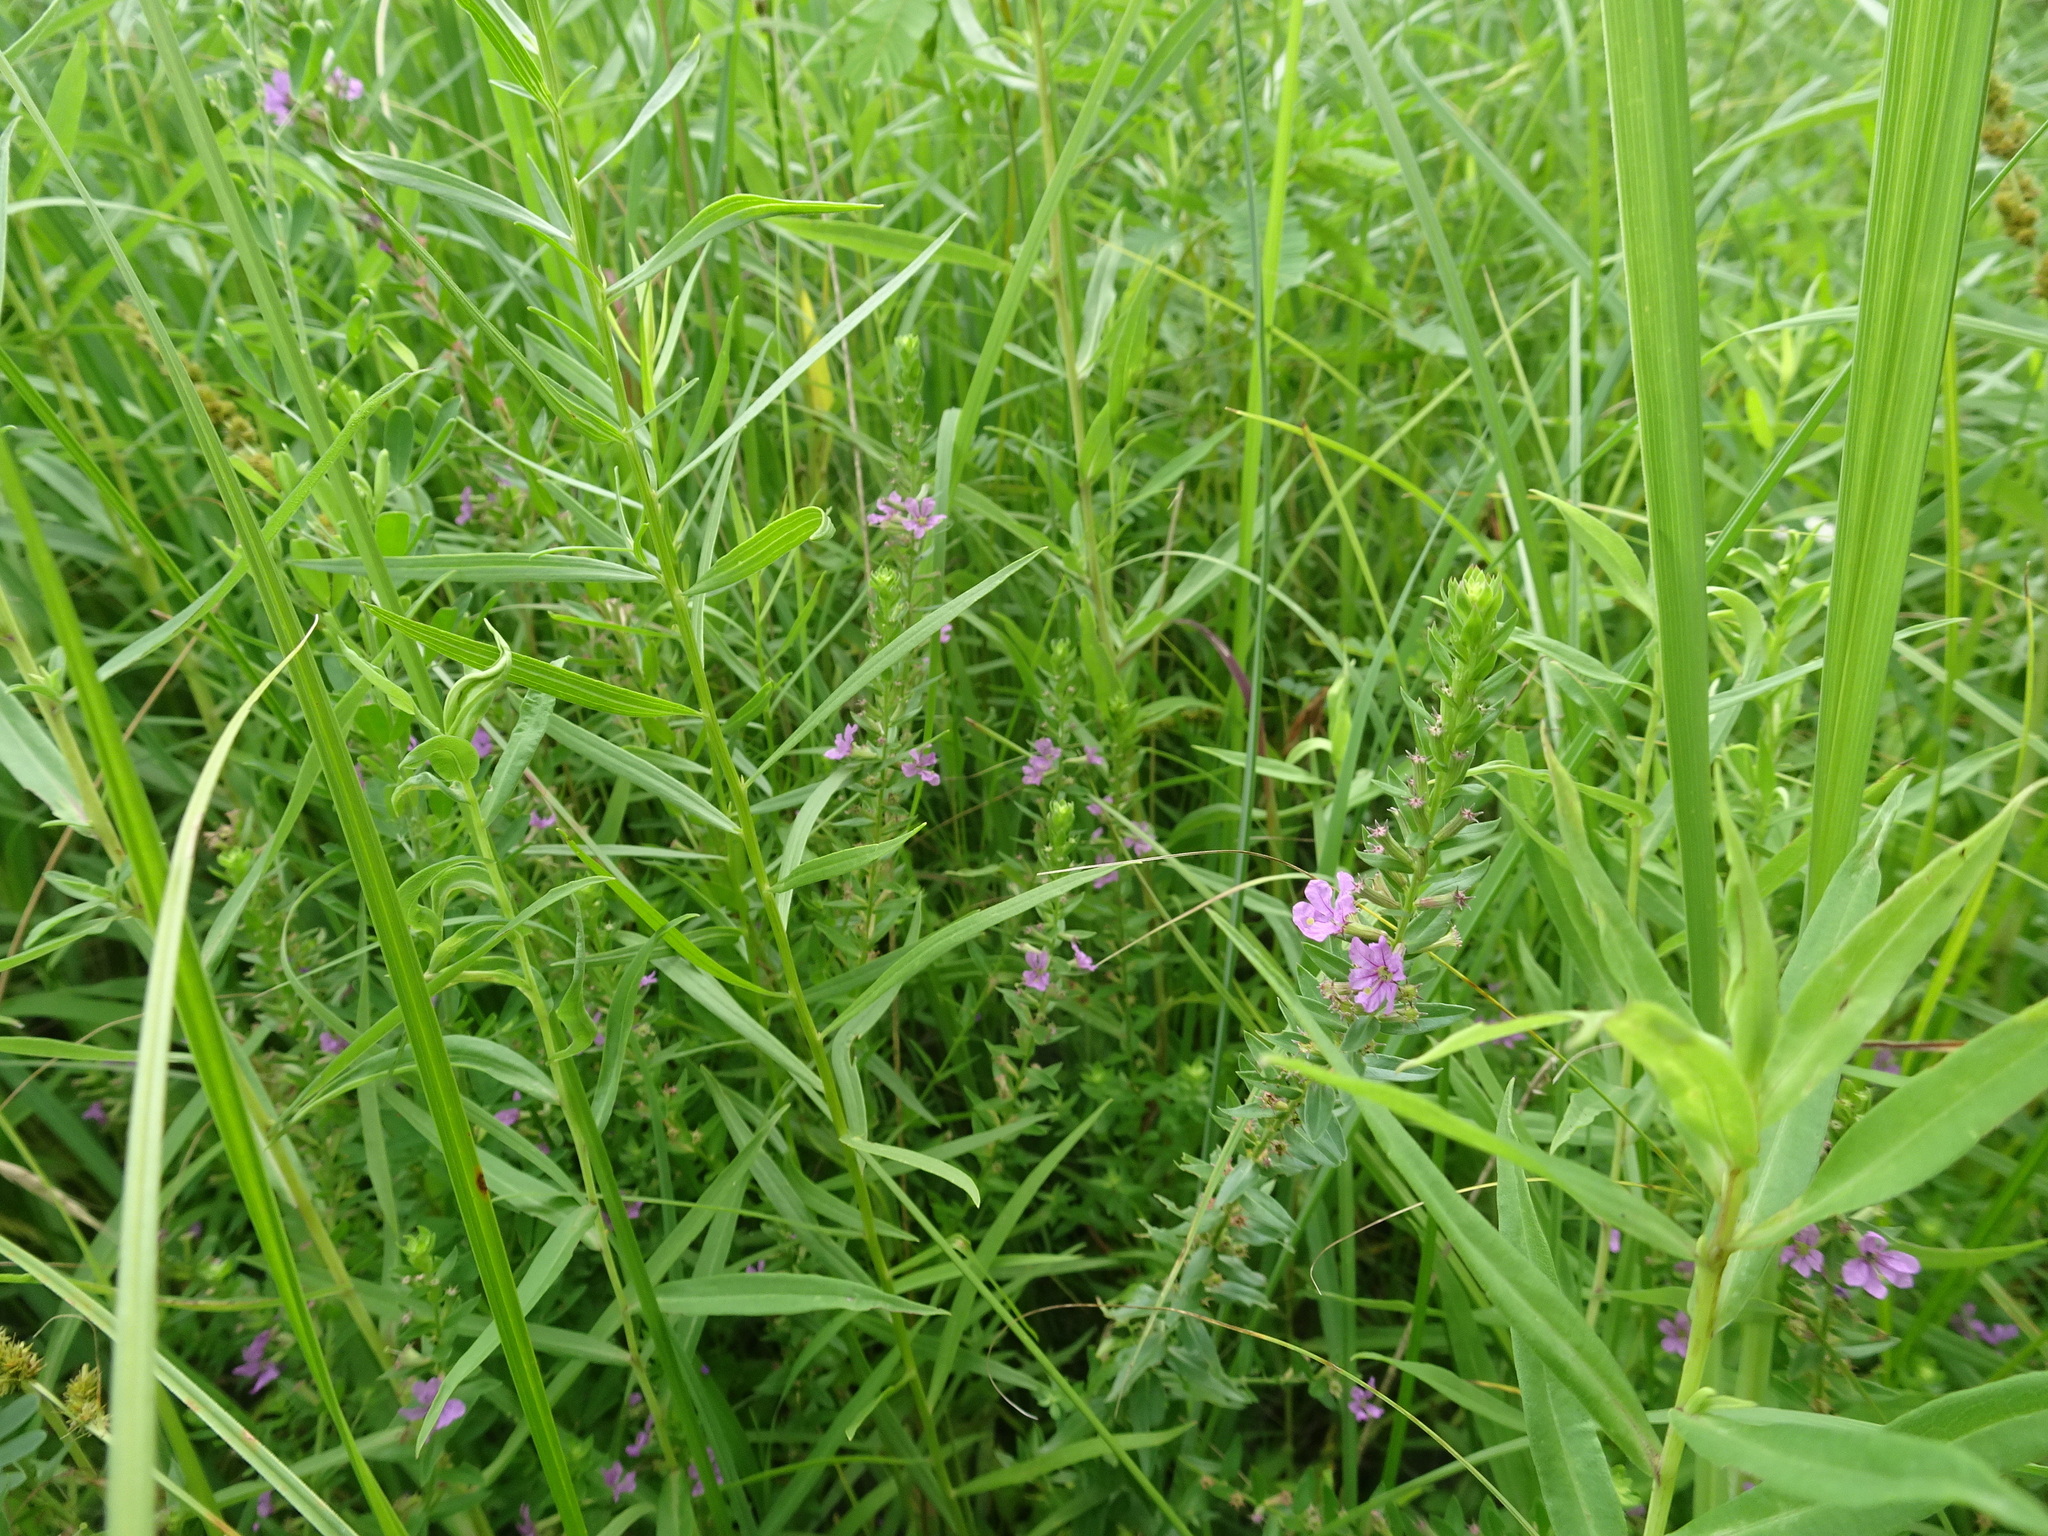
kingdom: Plantae
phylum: Tracheophyta
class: Magnoliopsida
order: Myrtales
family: Lythraceae
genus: Lythrum
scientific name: Lythrum alatum
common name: Winged loosestrife
